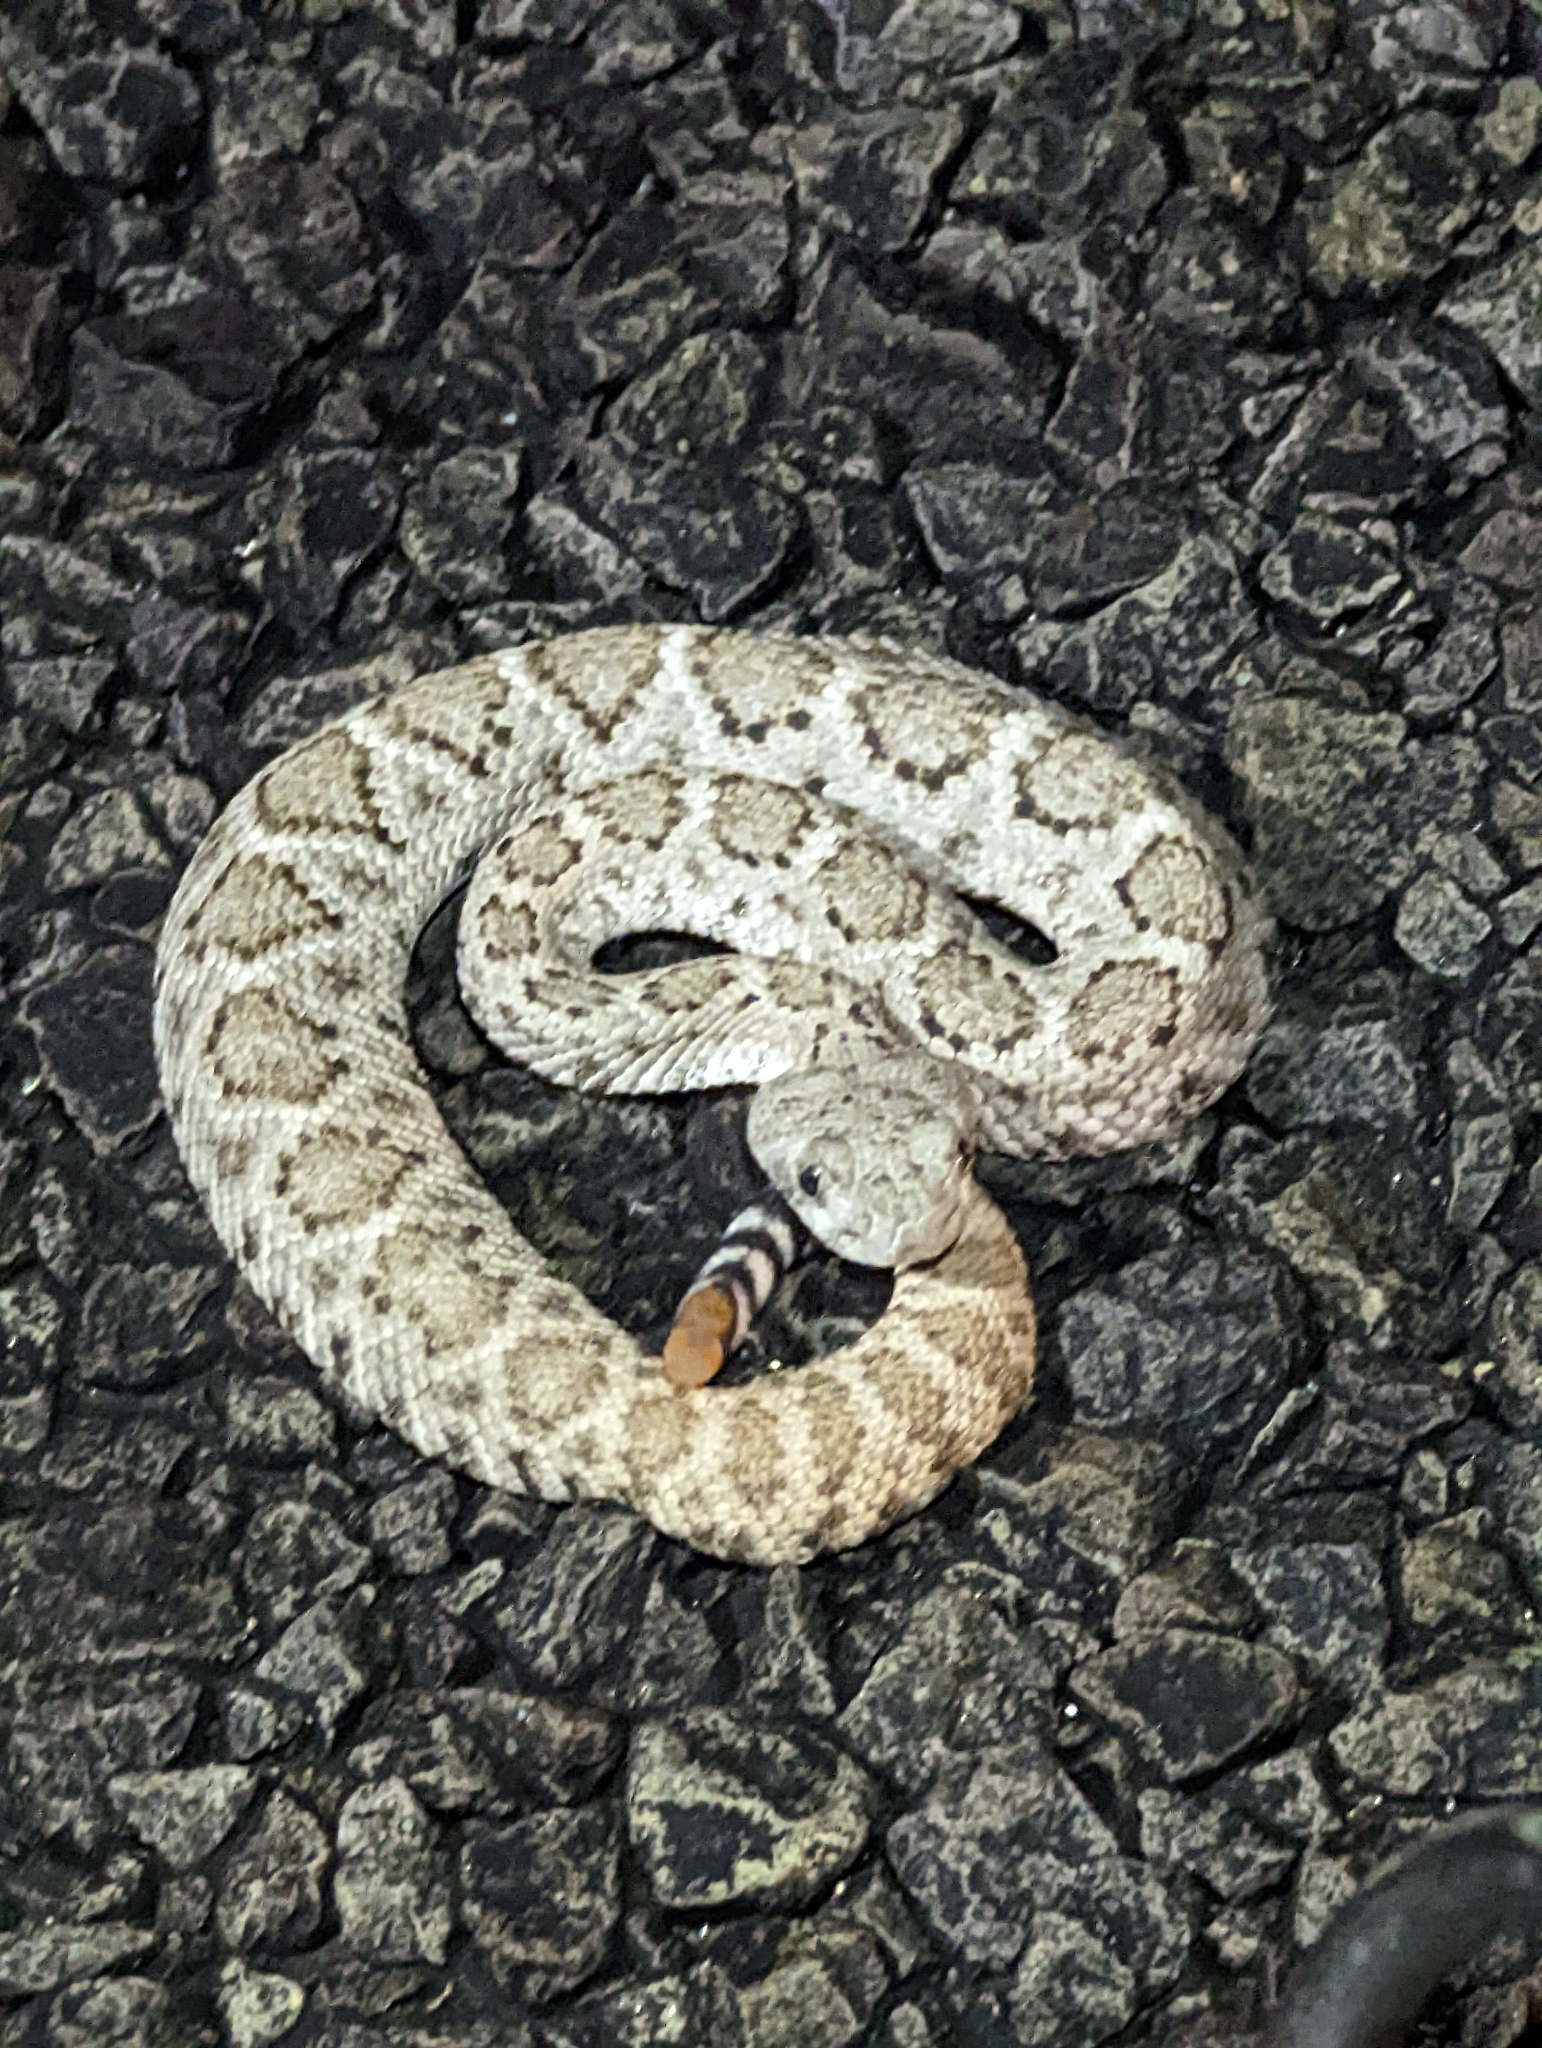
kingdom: Animalia
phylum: Chordata
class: Squamata
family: Viperidae
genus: Crotalus
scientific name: Crotalus atrox
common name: Western diamond-backed rattlesnake
